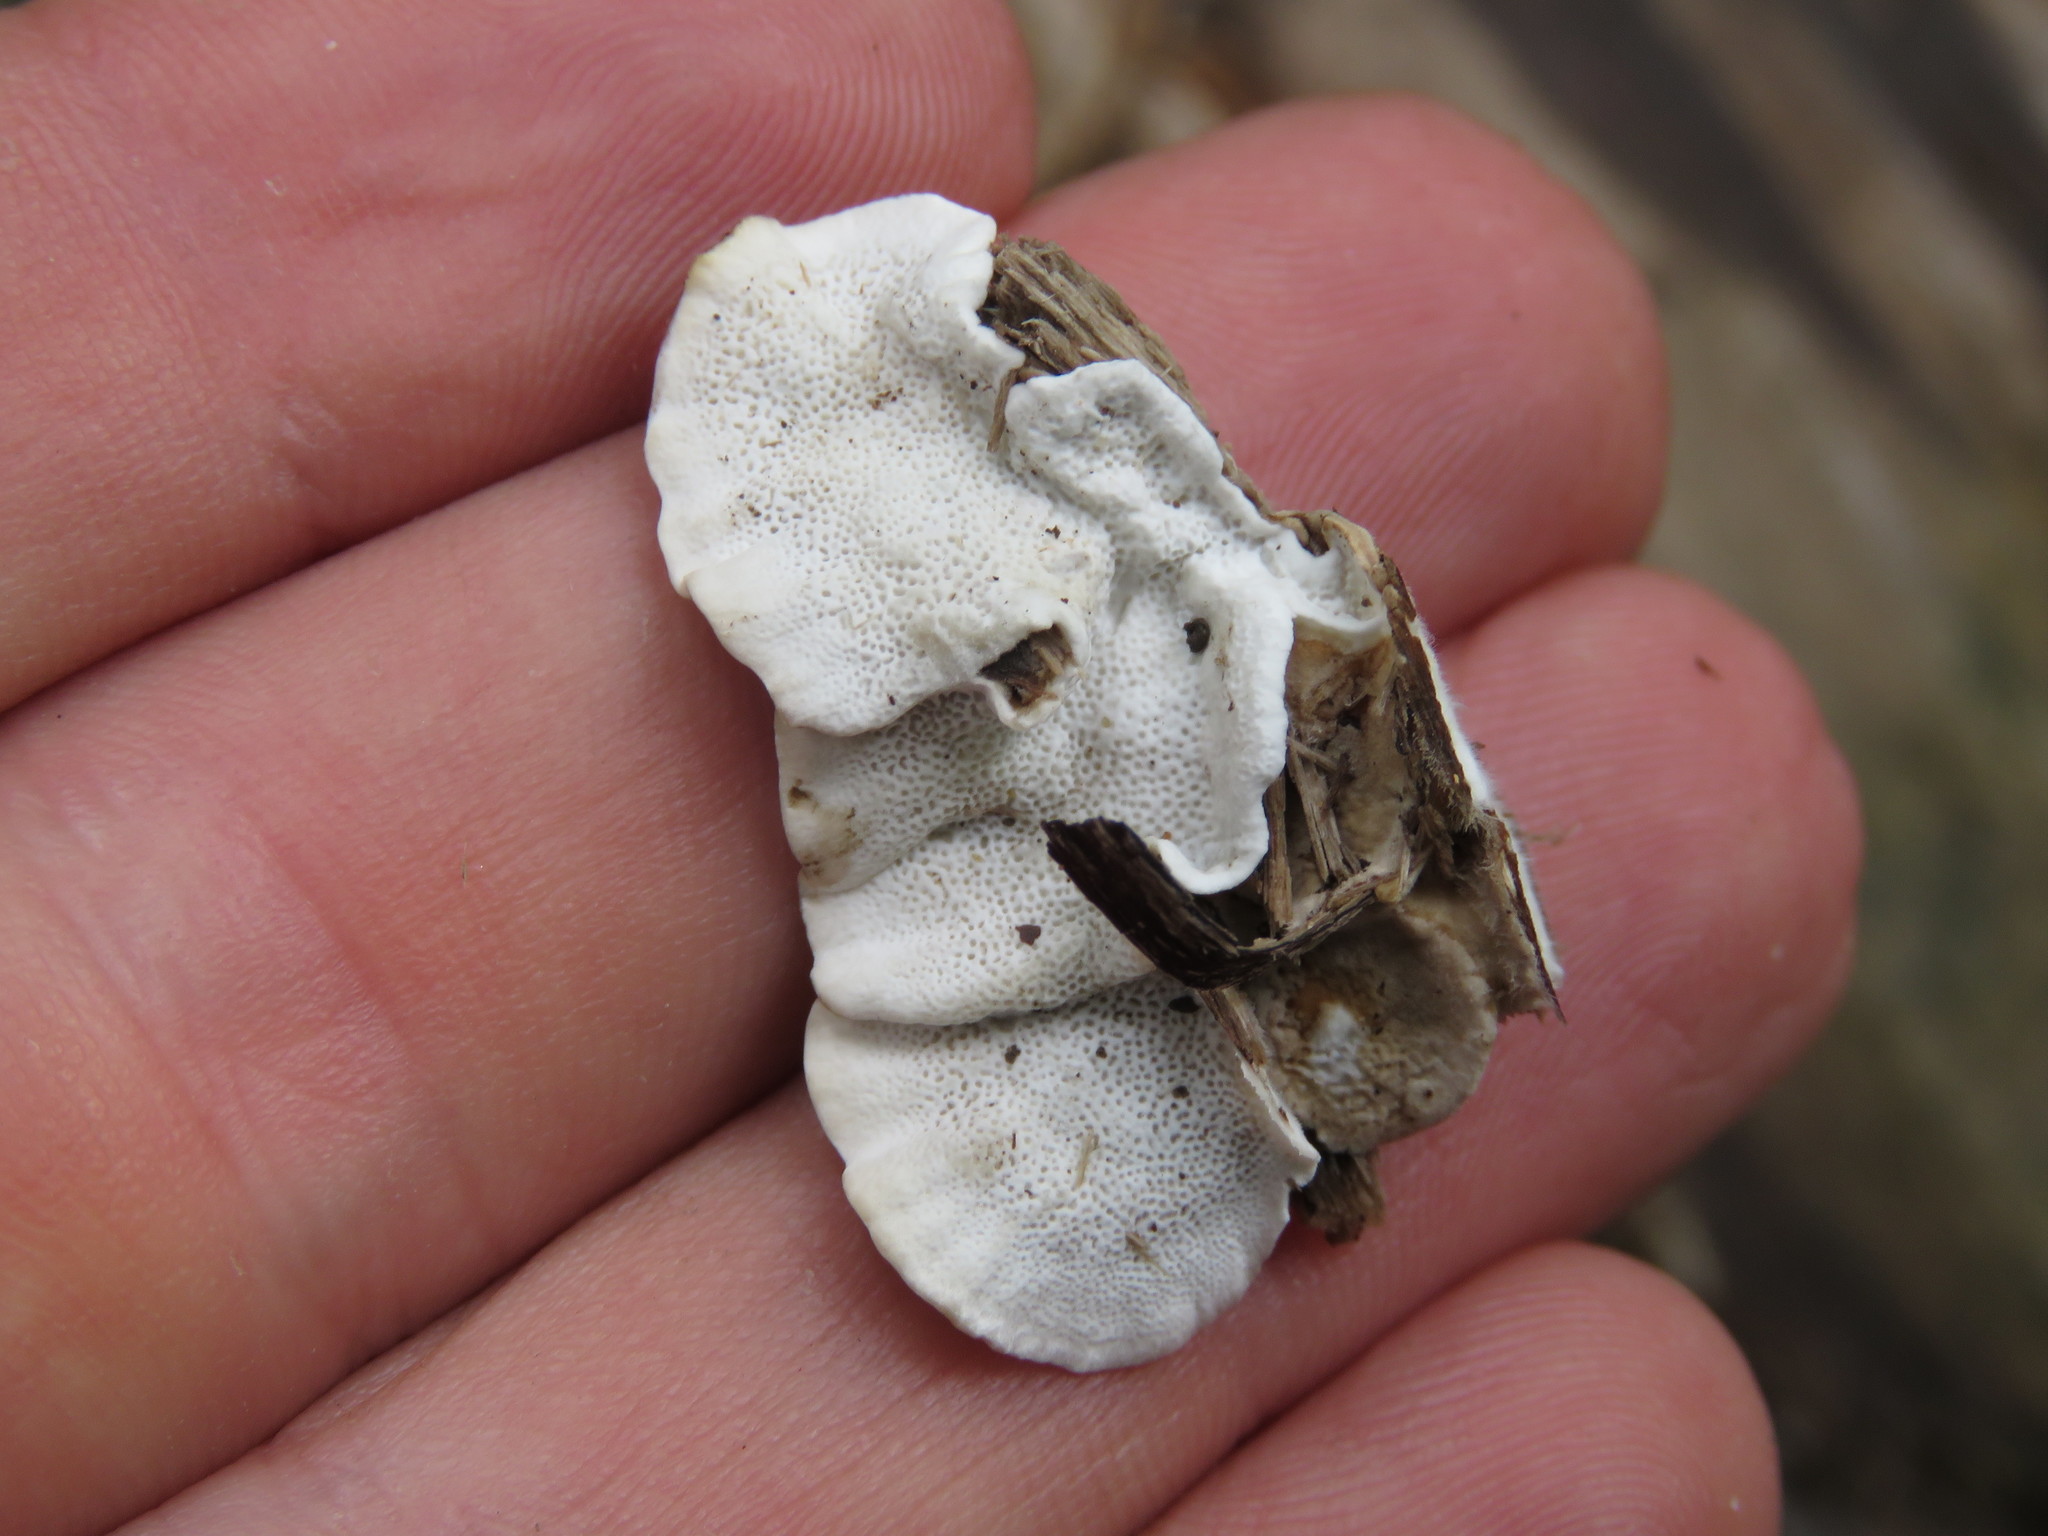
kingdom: Fungi
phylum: Basidiomycota
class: Agaricomycetes
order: Polyporales
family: Polyporaceae
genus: Trametes
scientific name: Trametes versicolor
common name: Turkeytail
